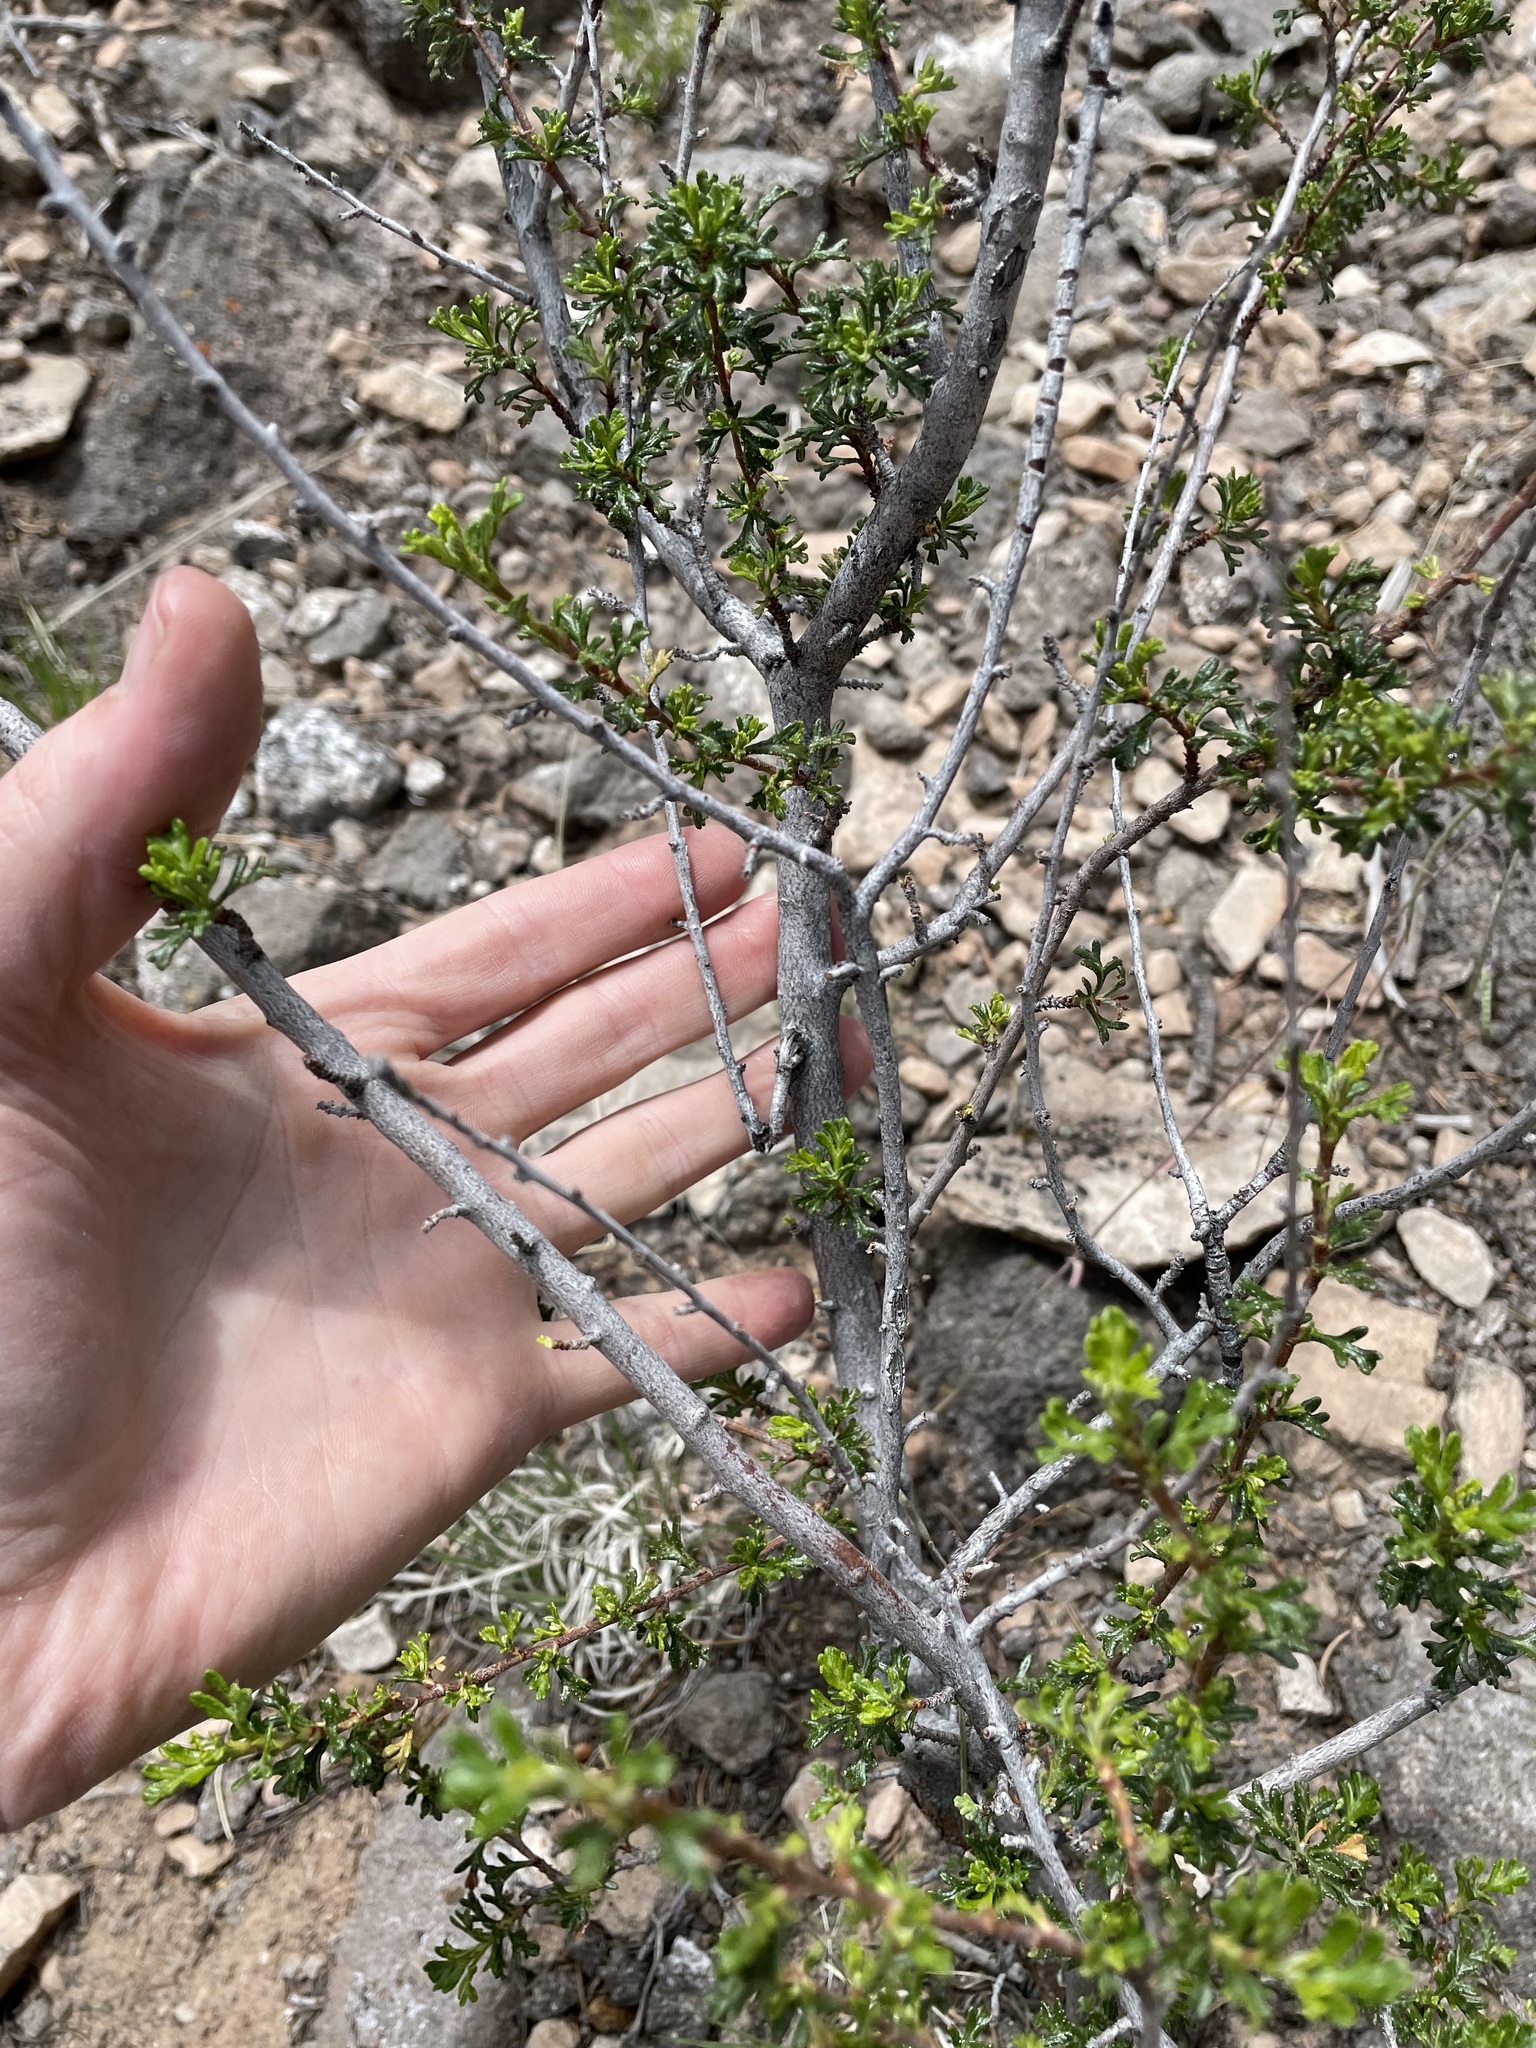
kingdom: Plantae
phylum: Tracheophyta
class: Magnoliopsida
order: Rosales
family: Rosaceae
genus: Purshia
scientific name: Purshia stansburiana
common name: Stansbury's cliffrose
